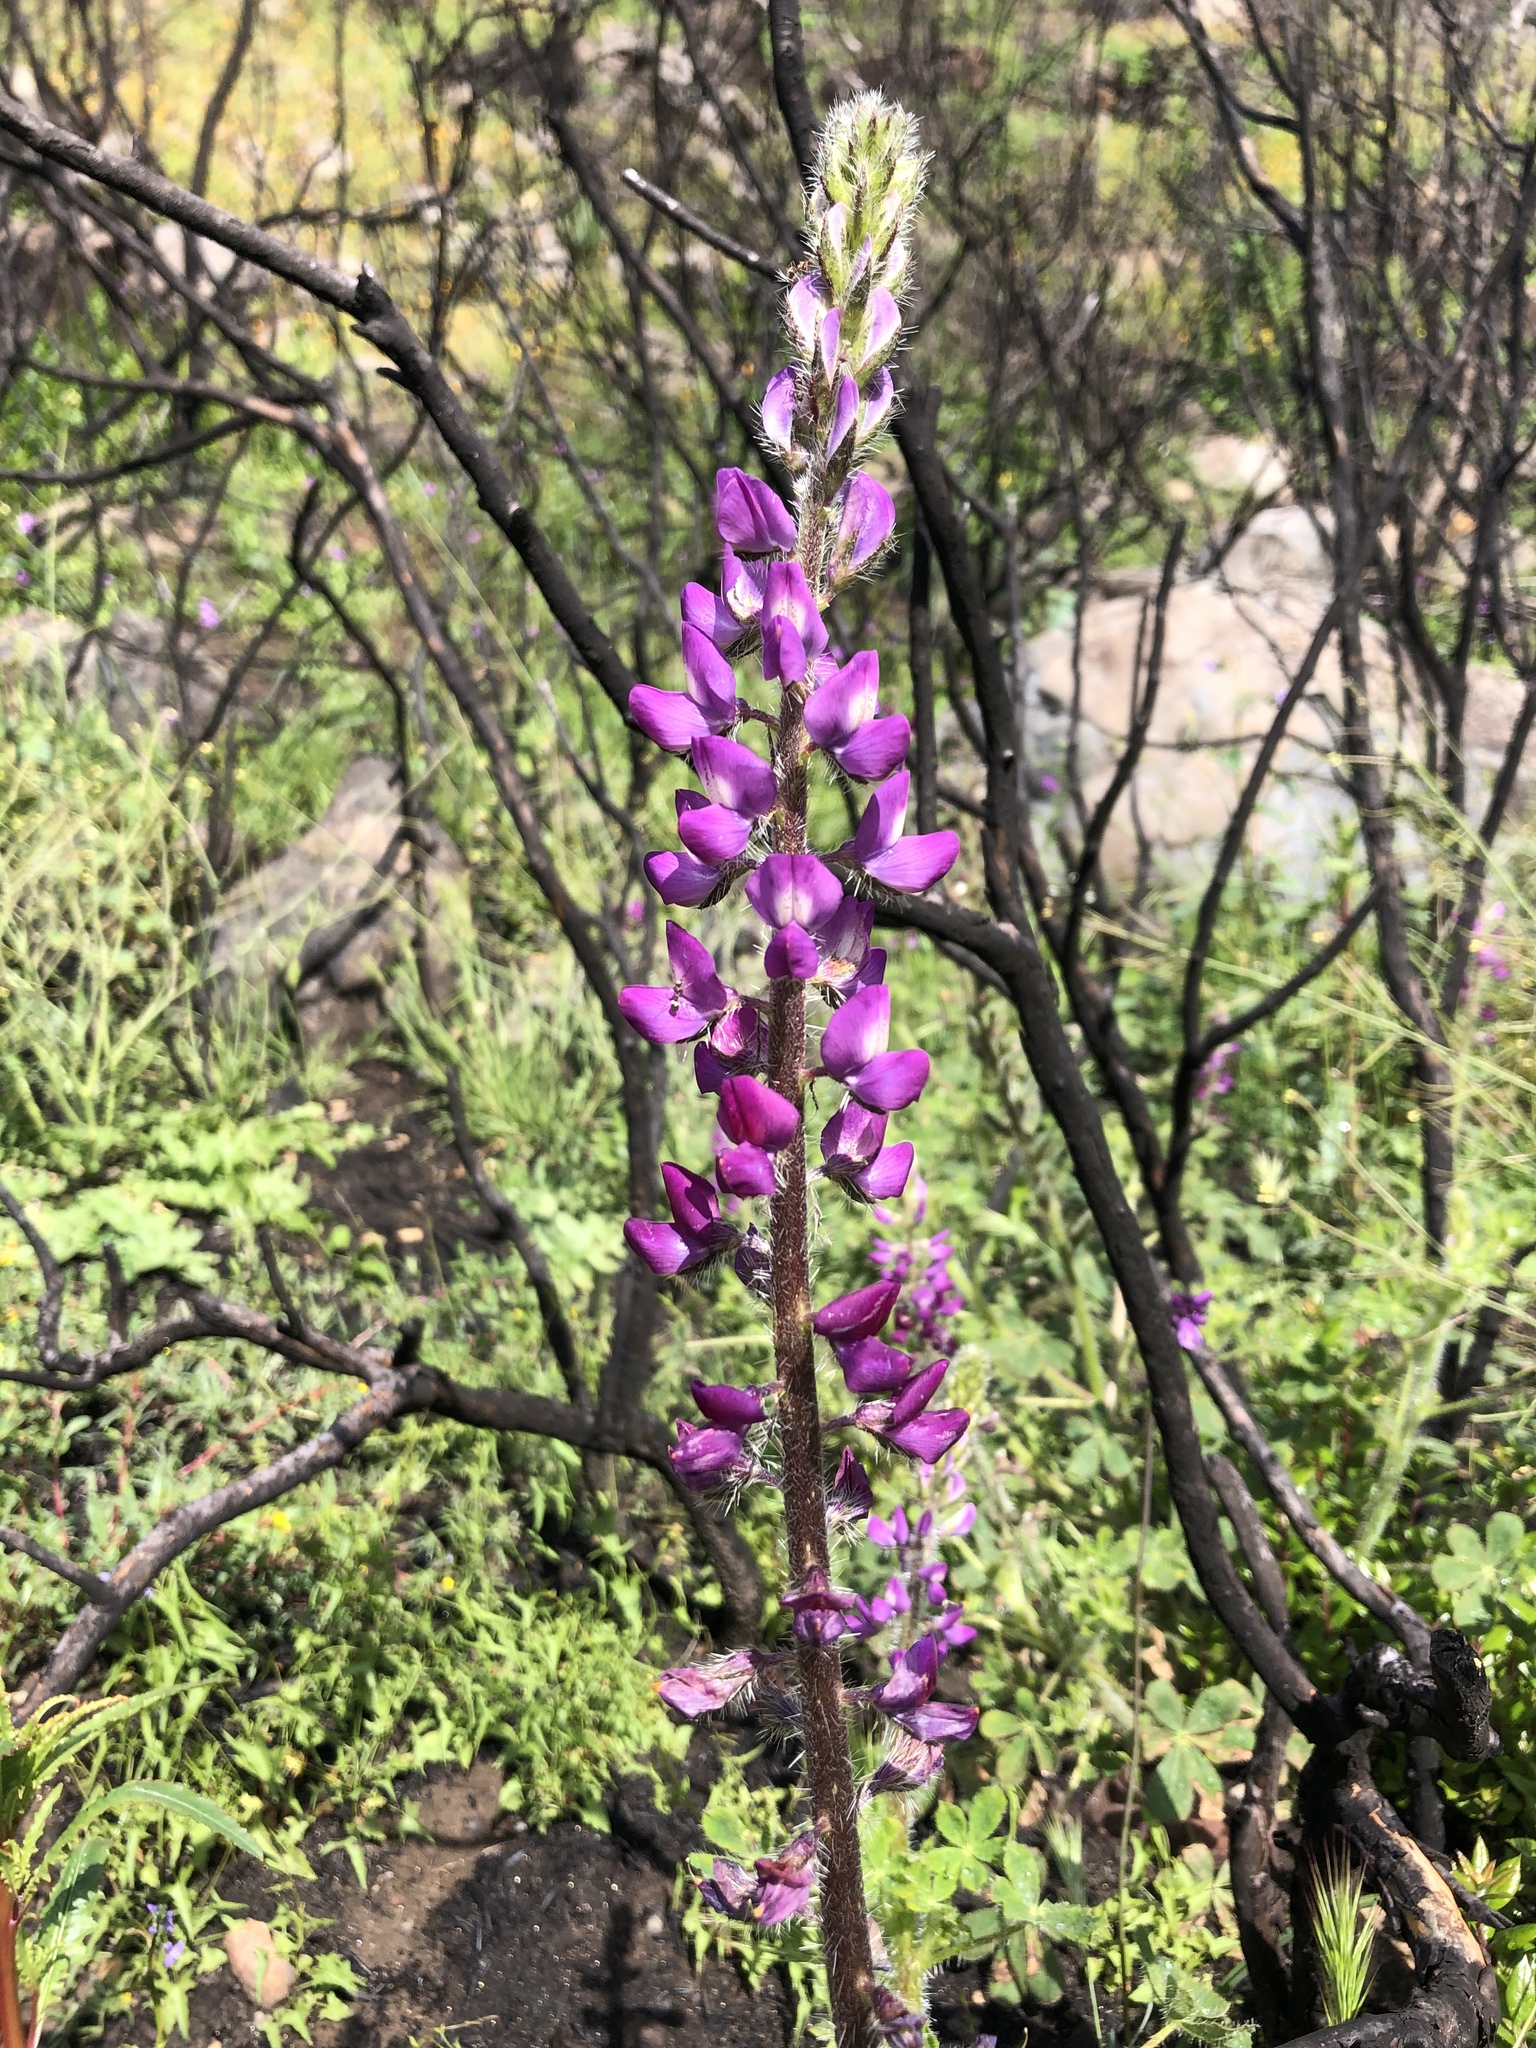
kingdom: Plantae
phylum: Tracheophyta
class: Magnoliopsida
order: Fabales
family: Fabaceae
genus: Lupinus
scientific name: Lupinus hirsutissimus
